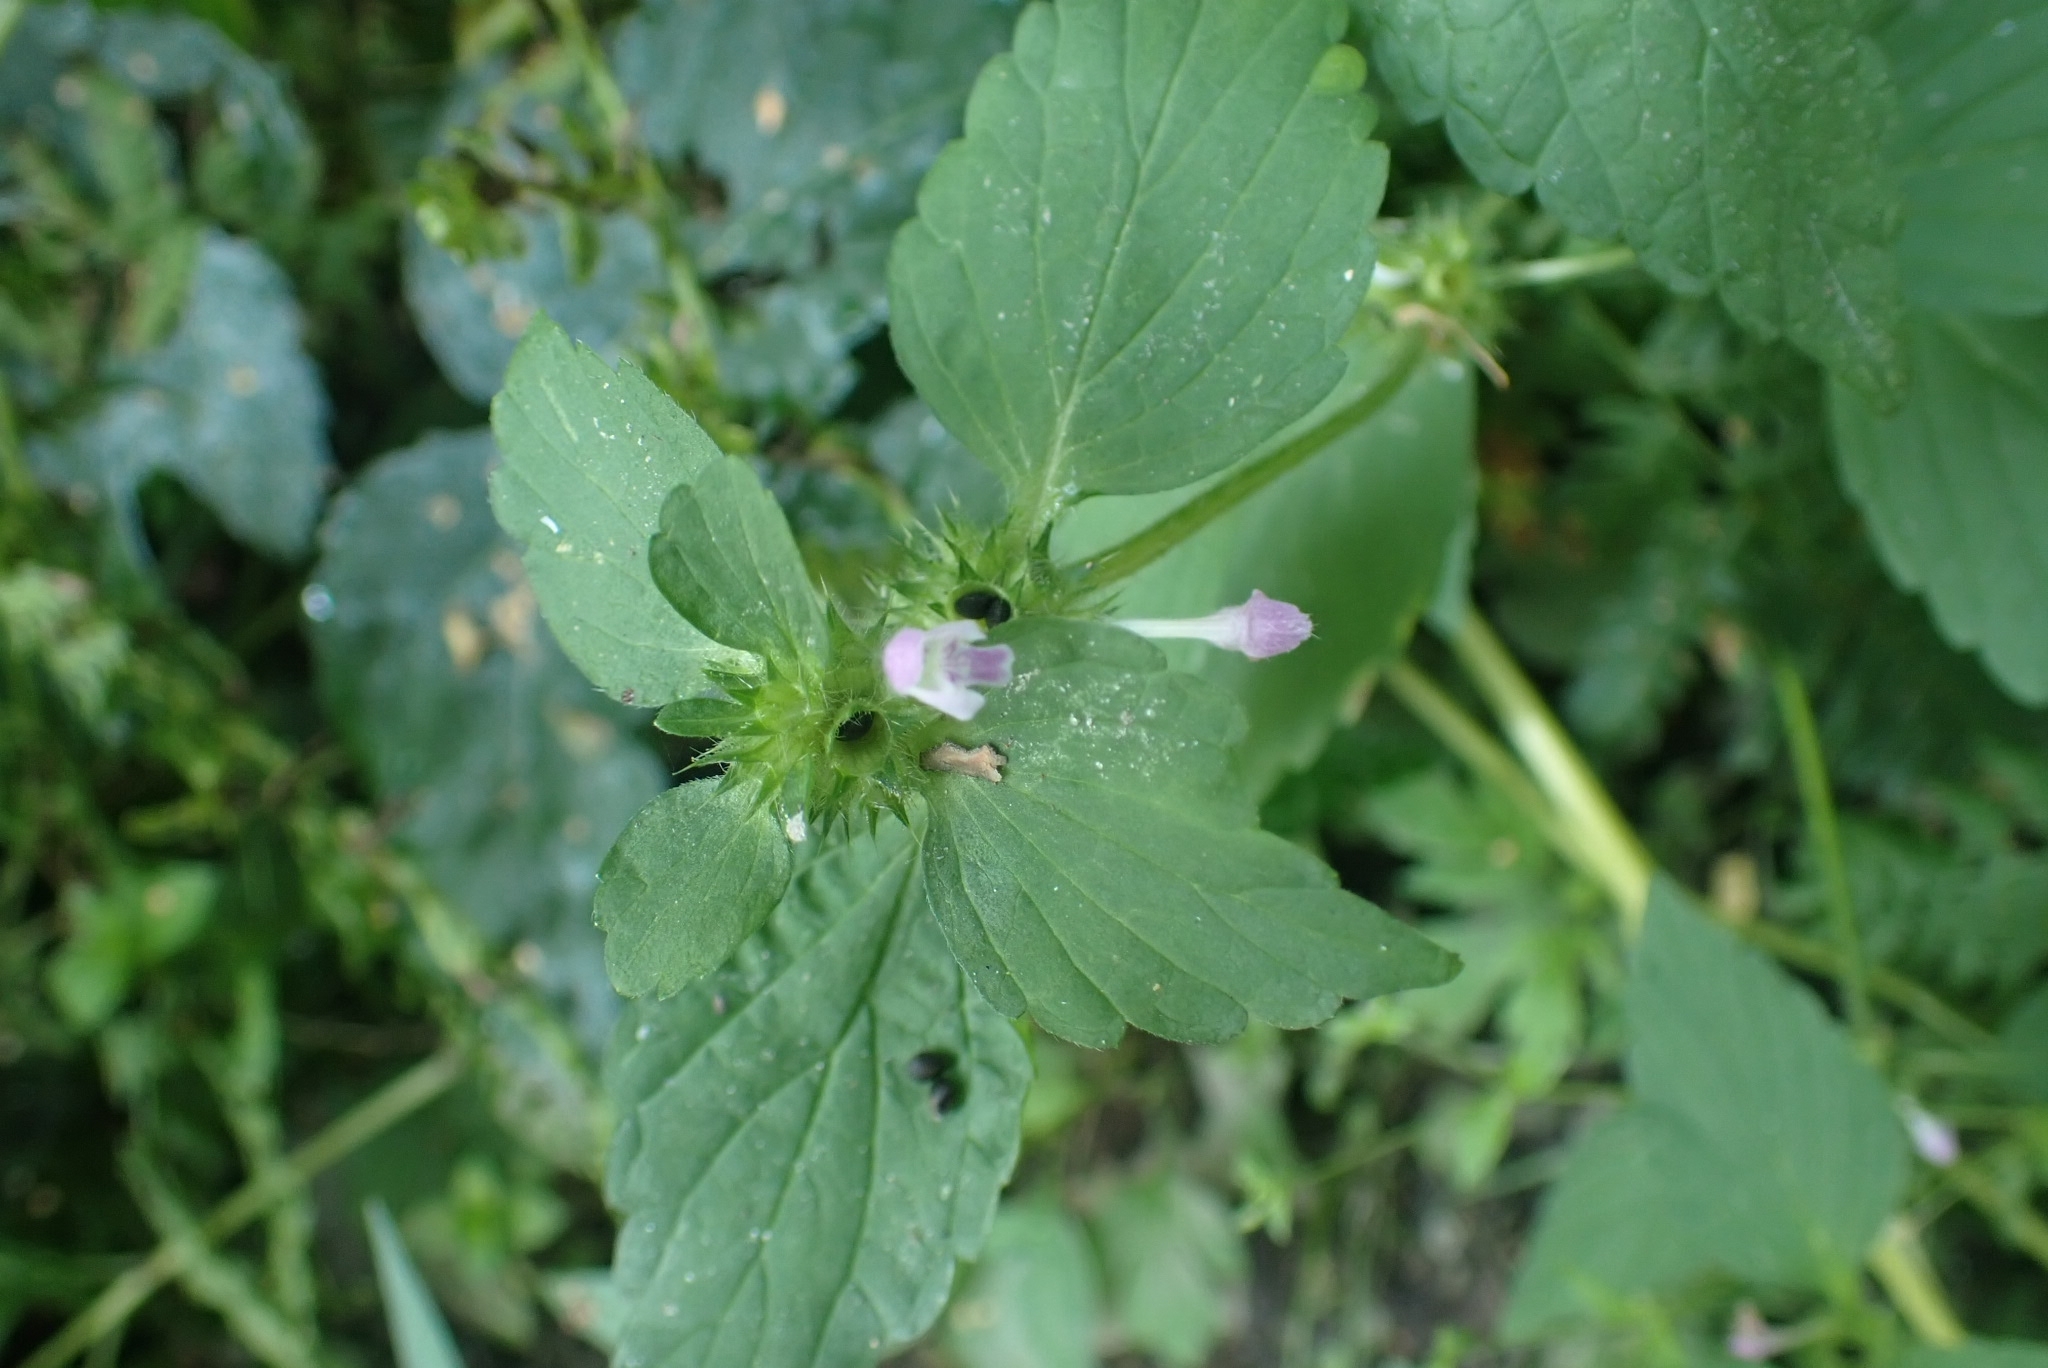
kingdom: Plantae
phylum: Tracheophyta
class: Magnoliopsida
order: Lamiales
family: Lamiaceae
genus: Galeopsis
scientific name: Galeopsis bifida
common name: Bifid hemp-nettle
